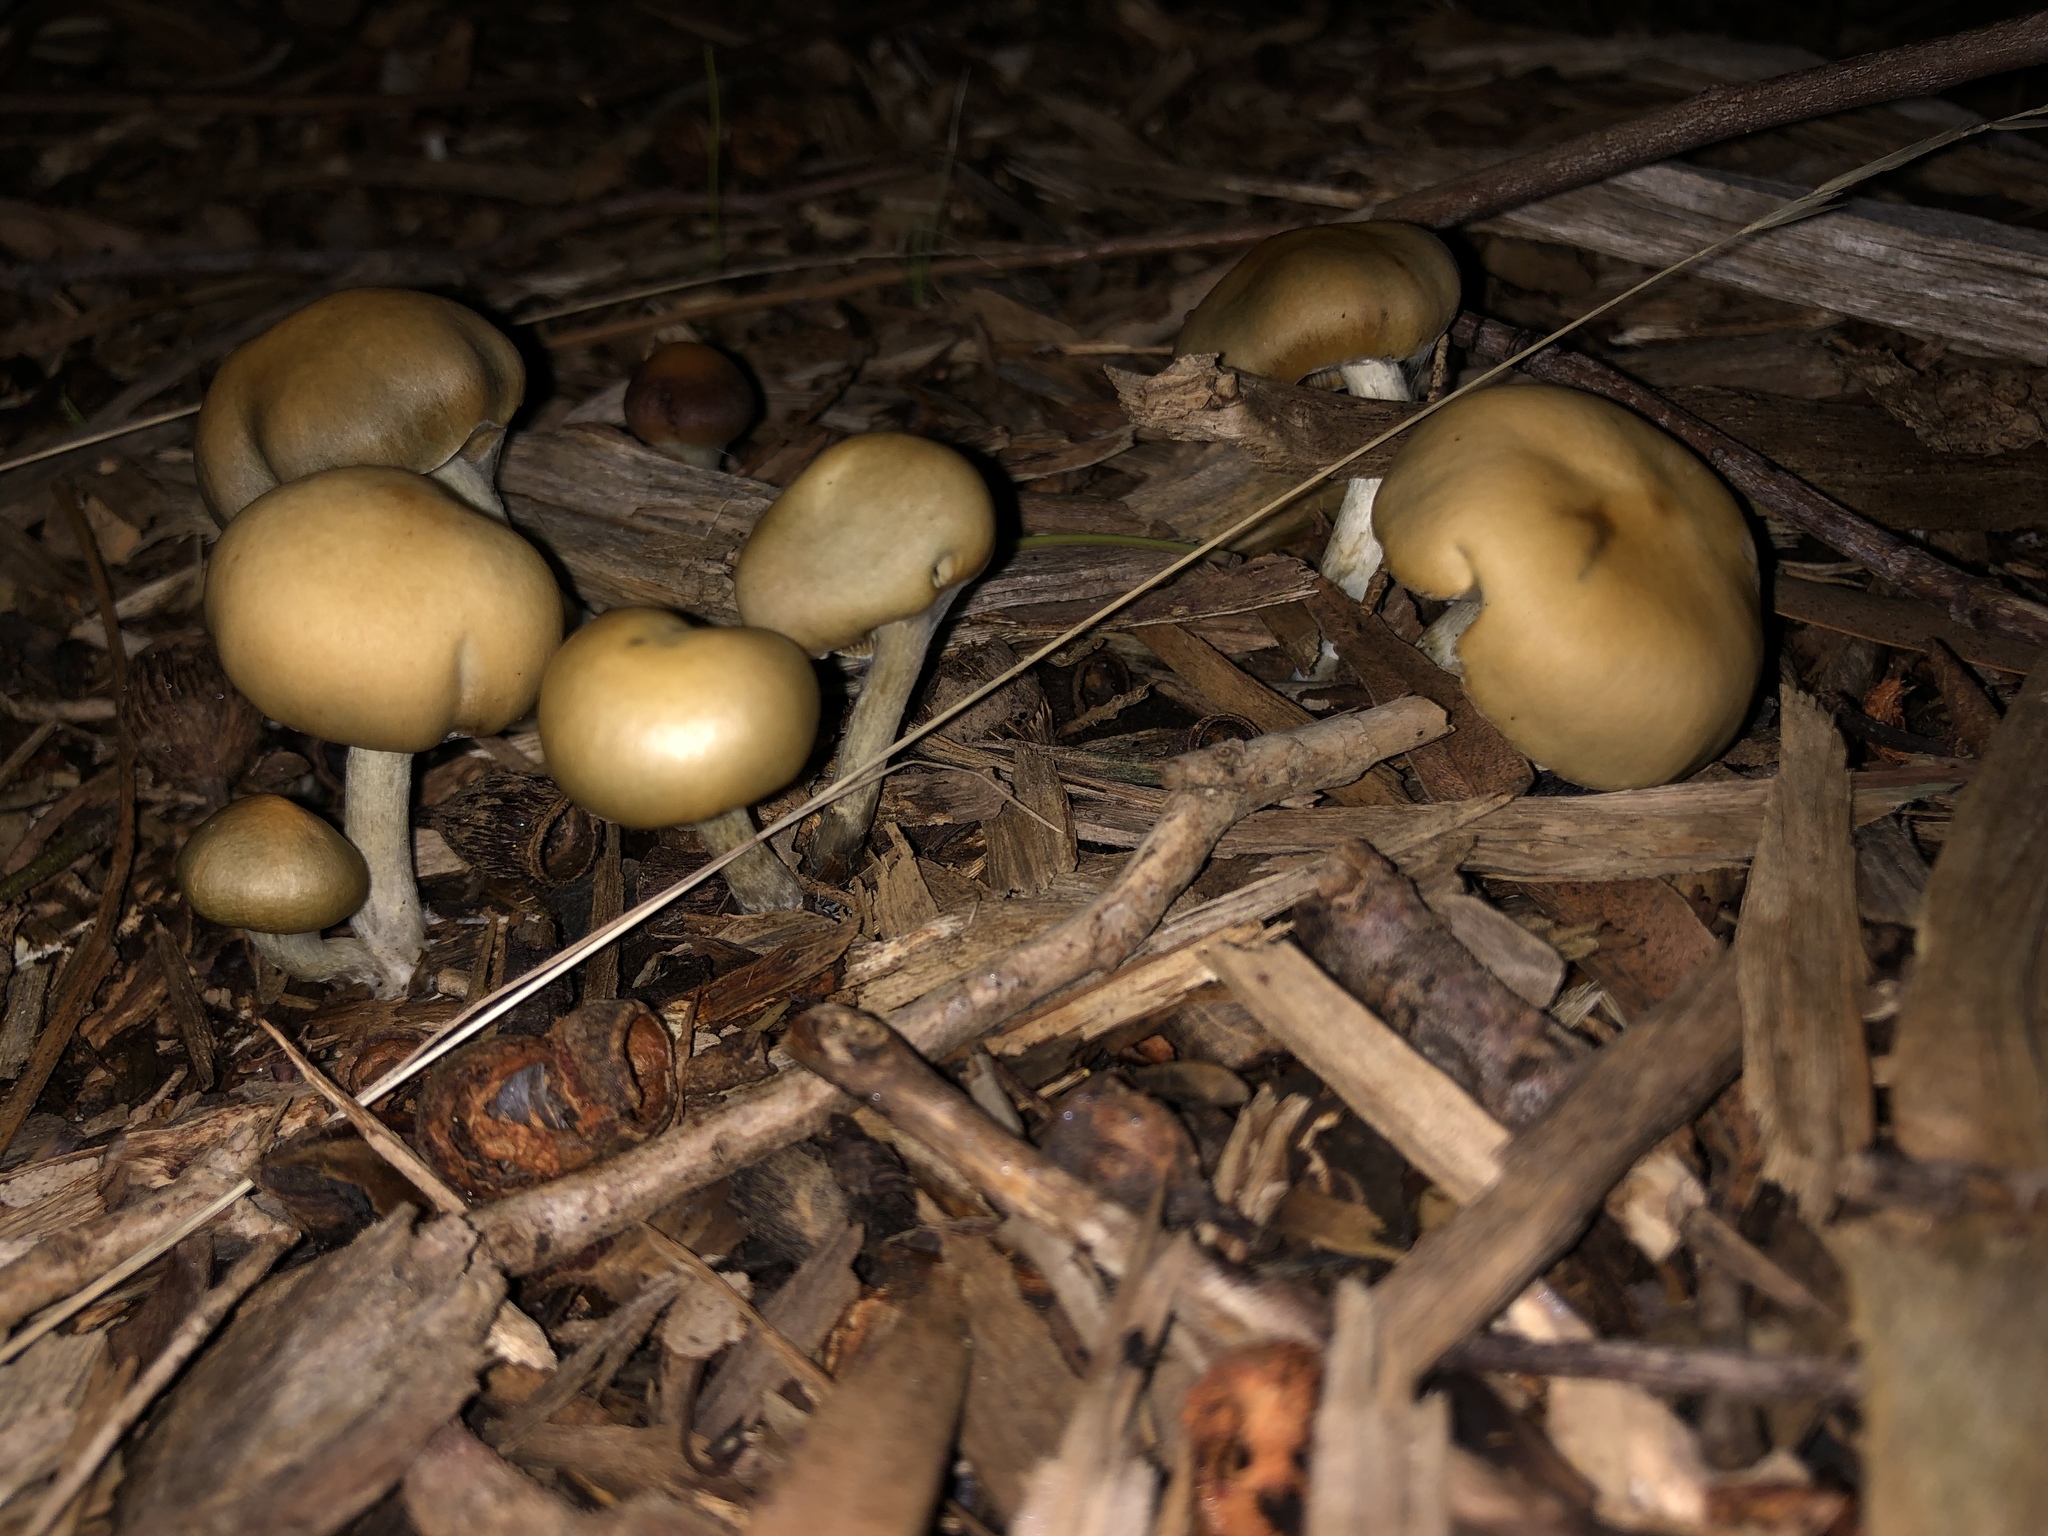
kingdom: Fungi
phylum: Basidiomycota
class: Agaricomycetes
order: Agaricales
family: Hymenogastraceae
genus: Psilocybe
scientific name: Psilocybe subaeruginosa
